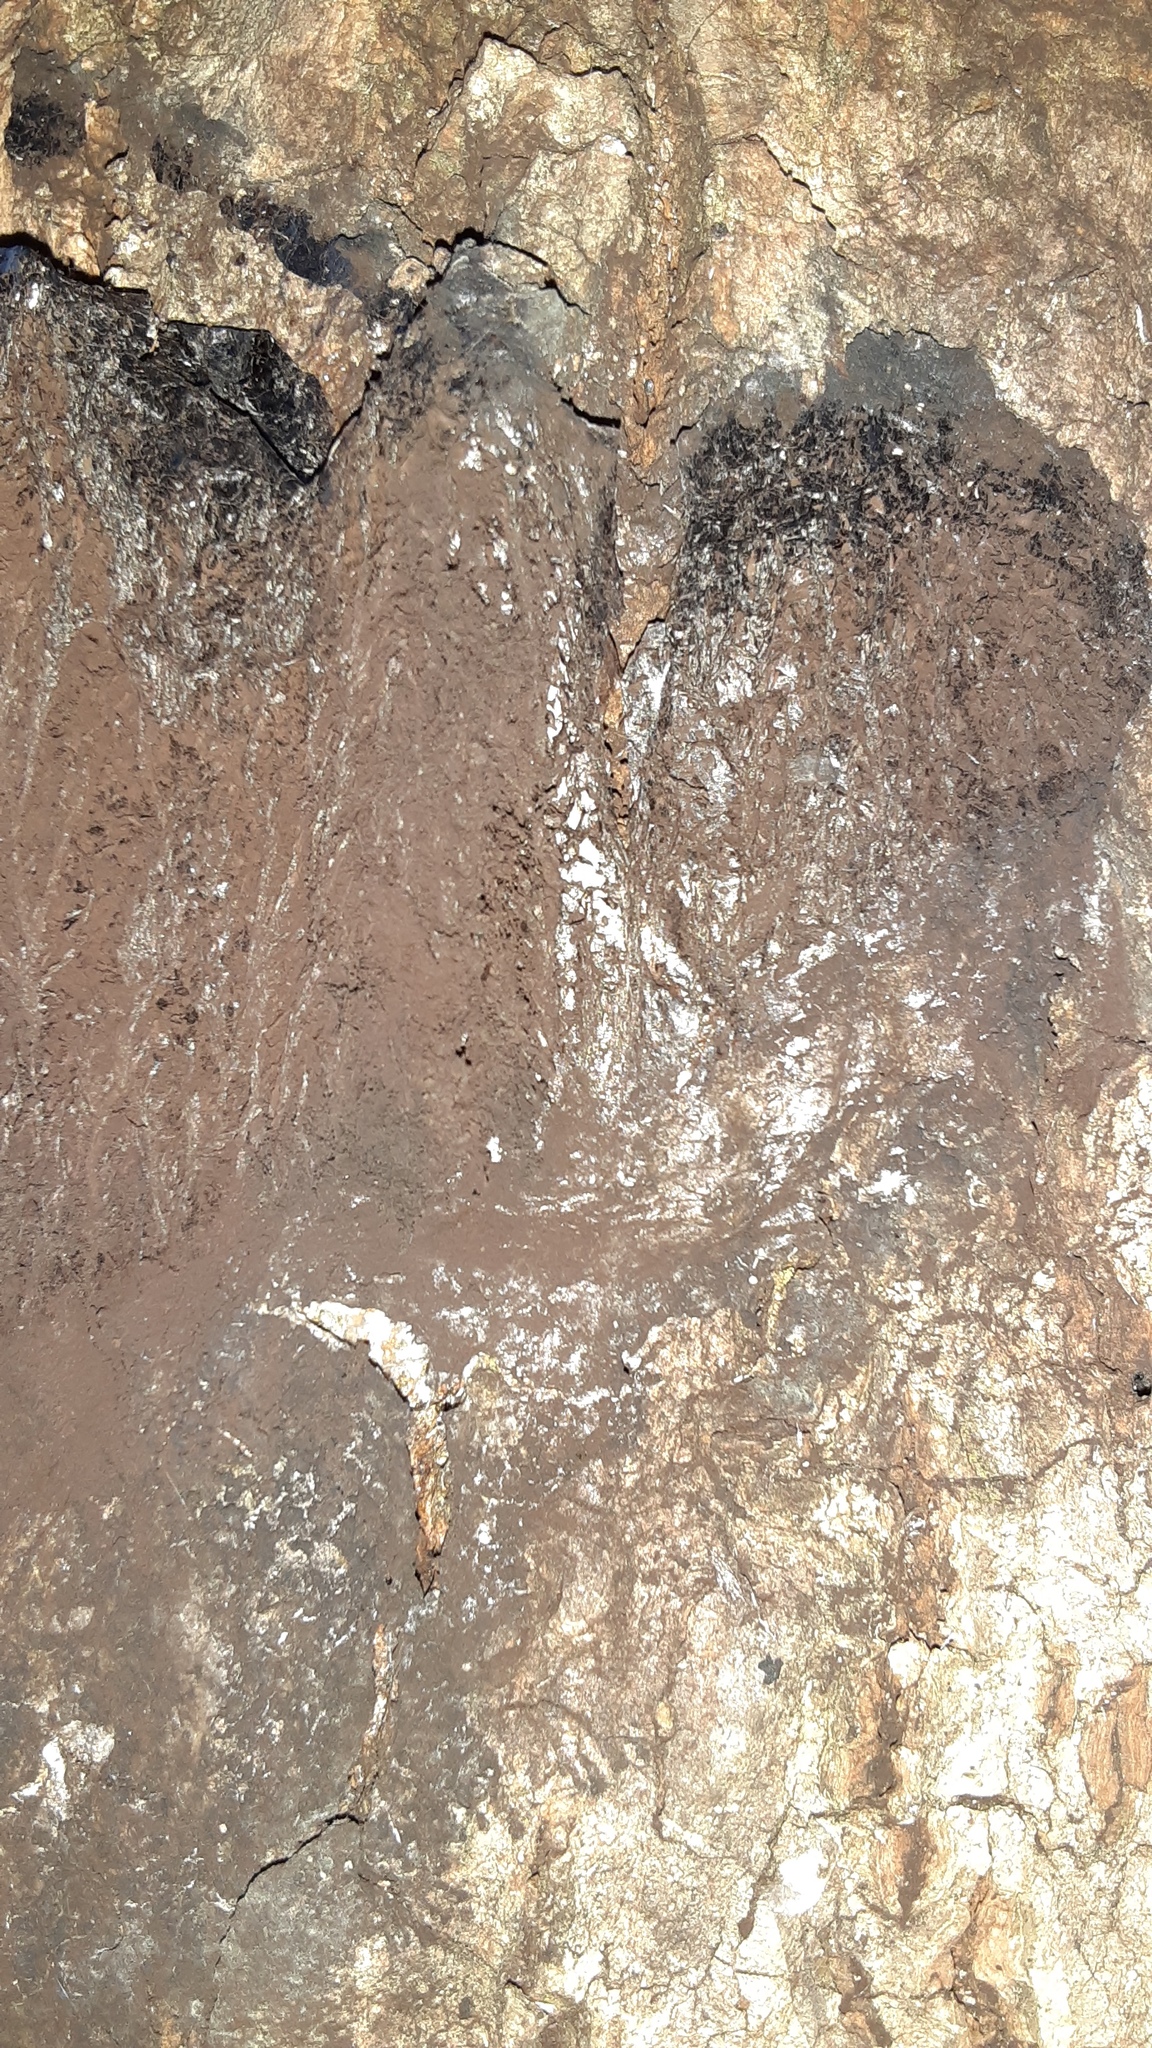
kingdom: Protozoa
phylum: Mycetozoa
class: Myxomycetes
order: Stemonitidales
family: Stemonitidaceae
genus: Brefeldia
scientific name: Brefeldia maxima
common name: Tapioca slime mold
